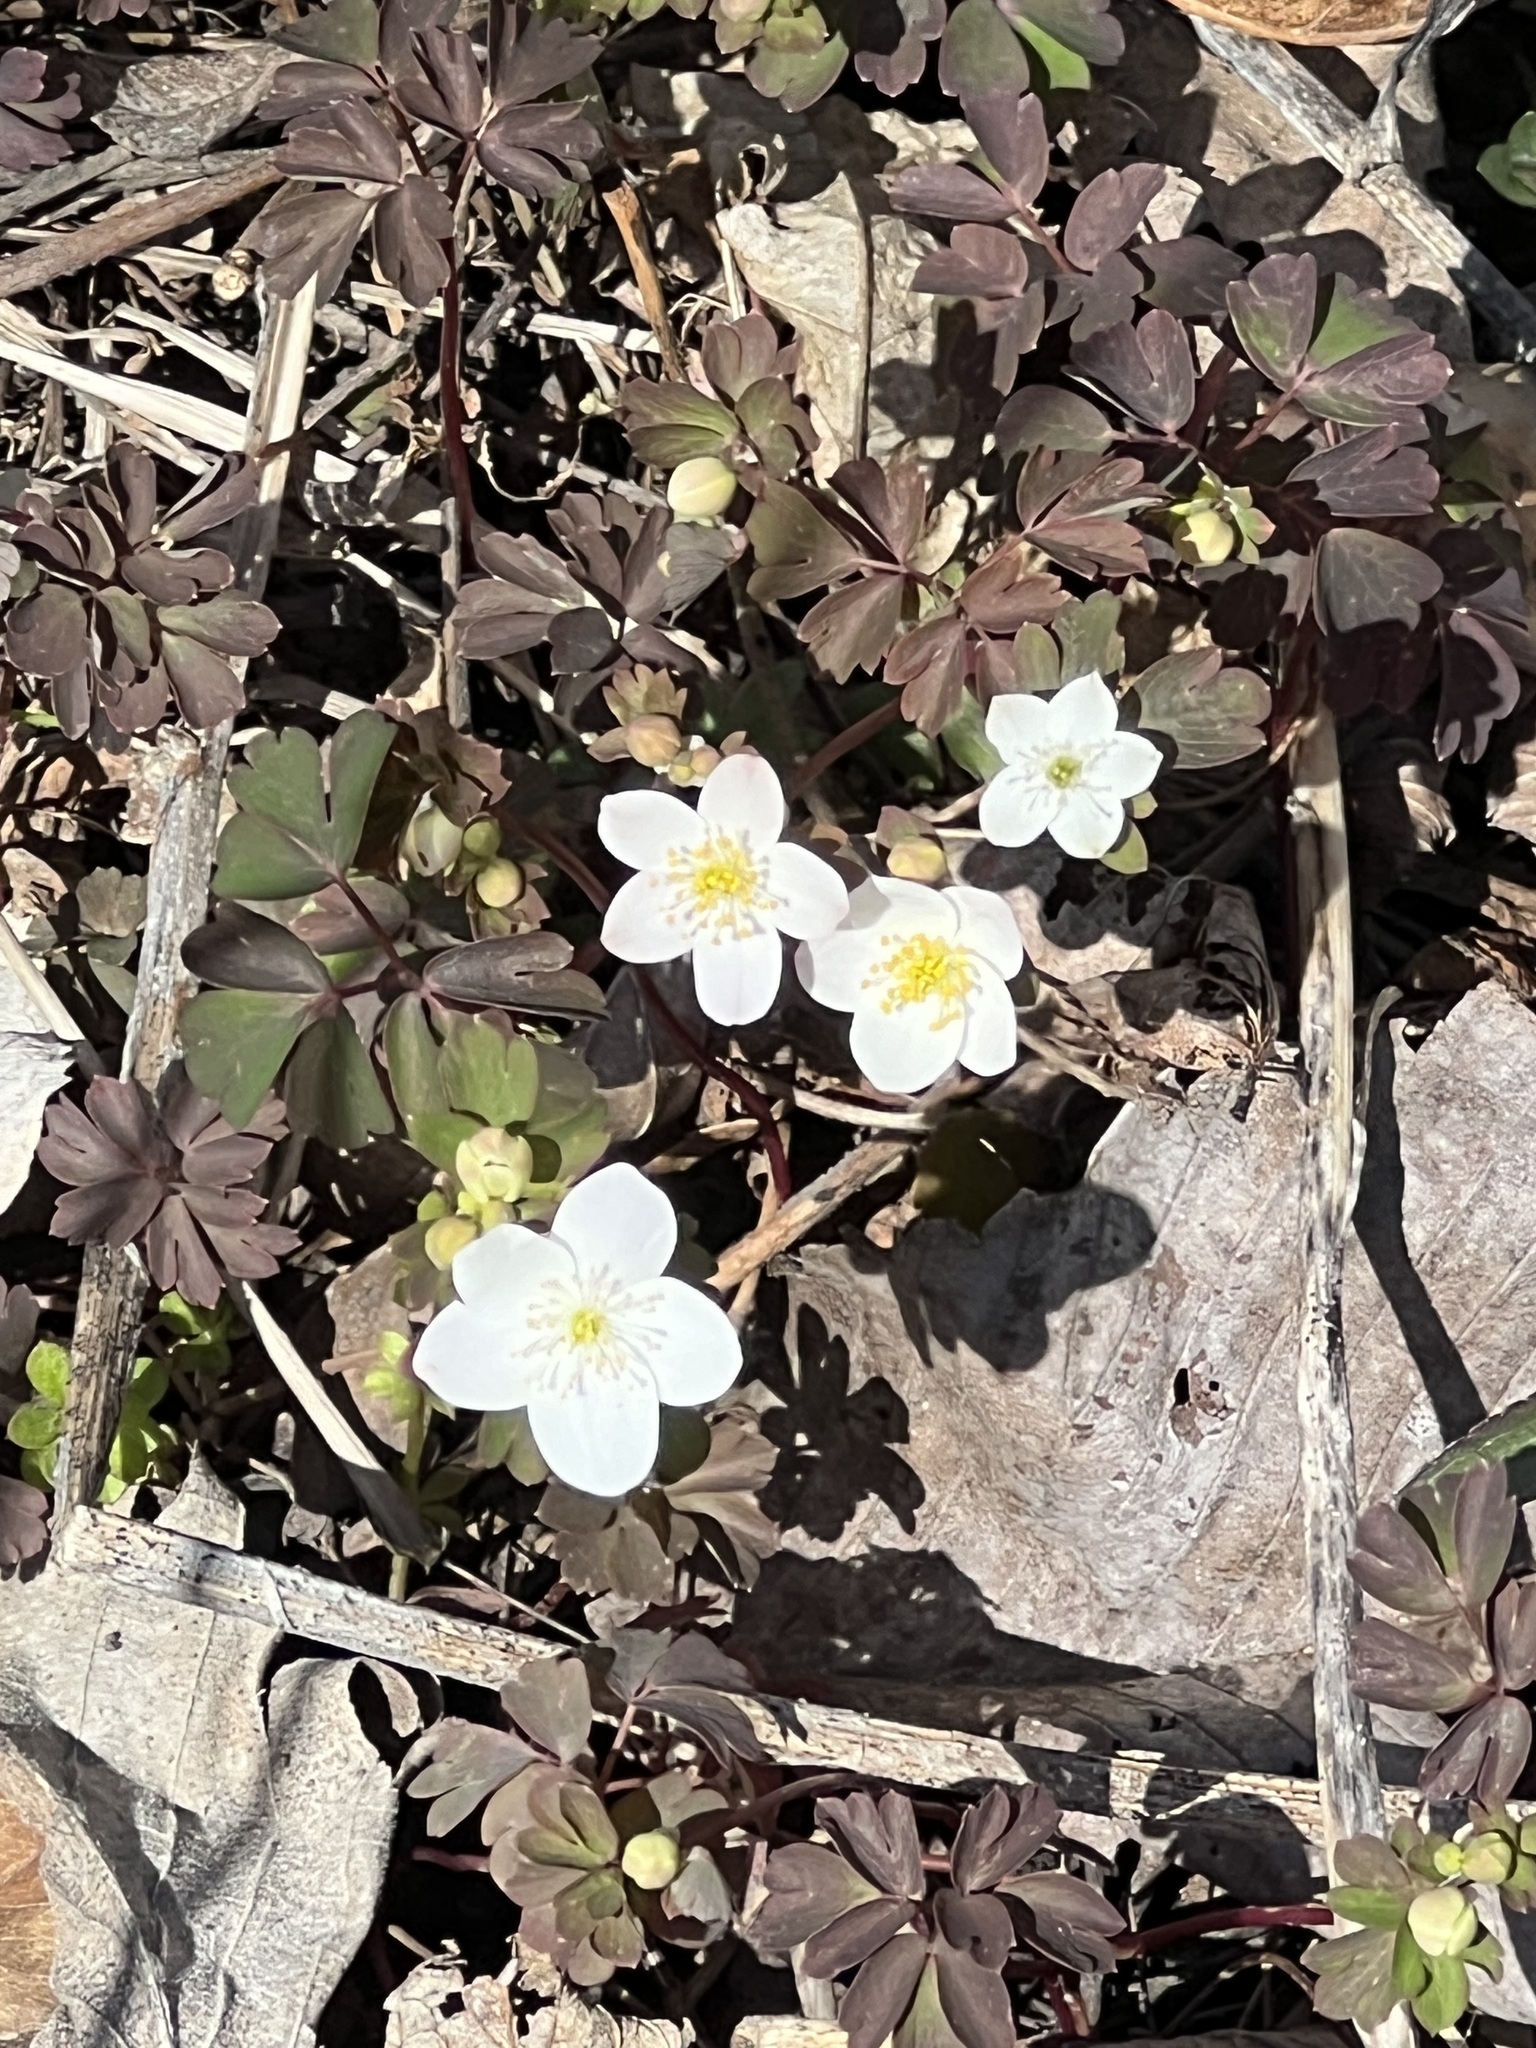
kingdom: Plantae
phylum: Tracheophyta
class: Magnoliopsida
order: Ranunculales
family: Ranunculaceae
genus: Enemion
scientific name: Enemion biternatum
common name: Eastern false rue-anemone
